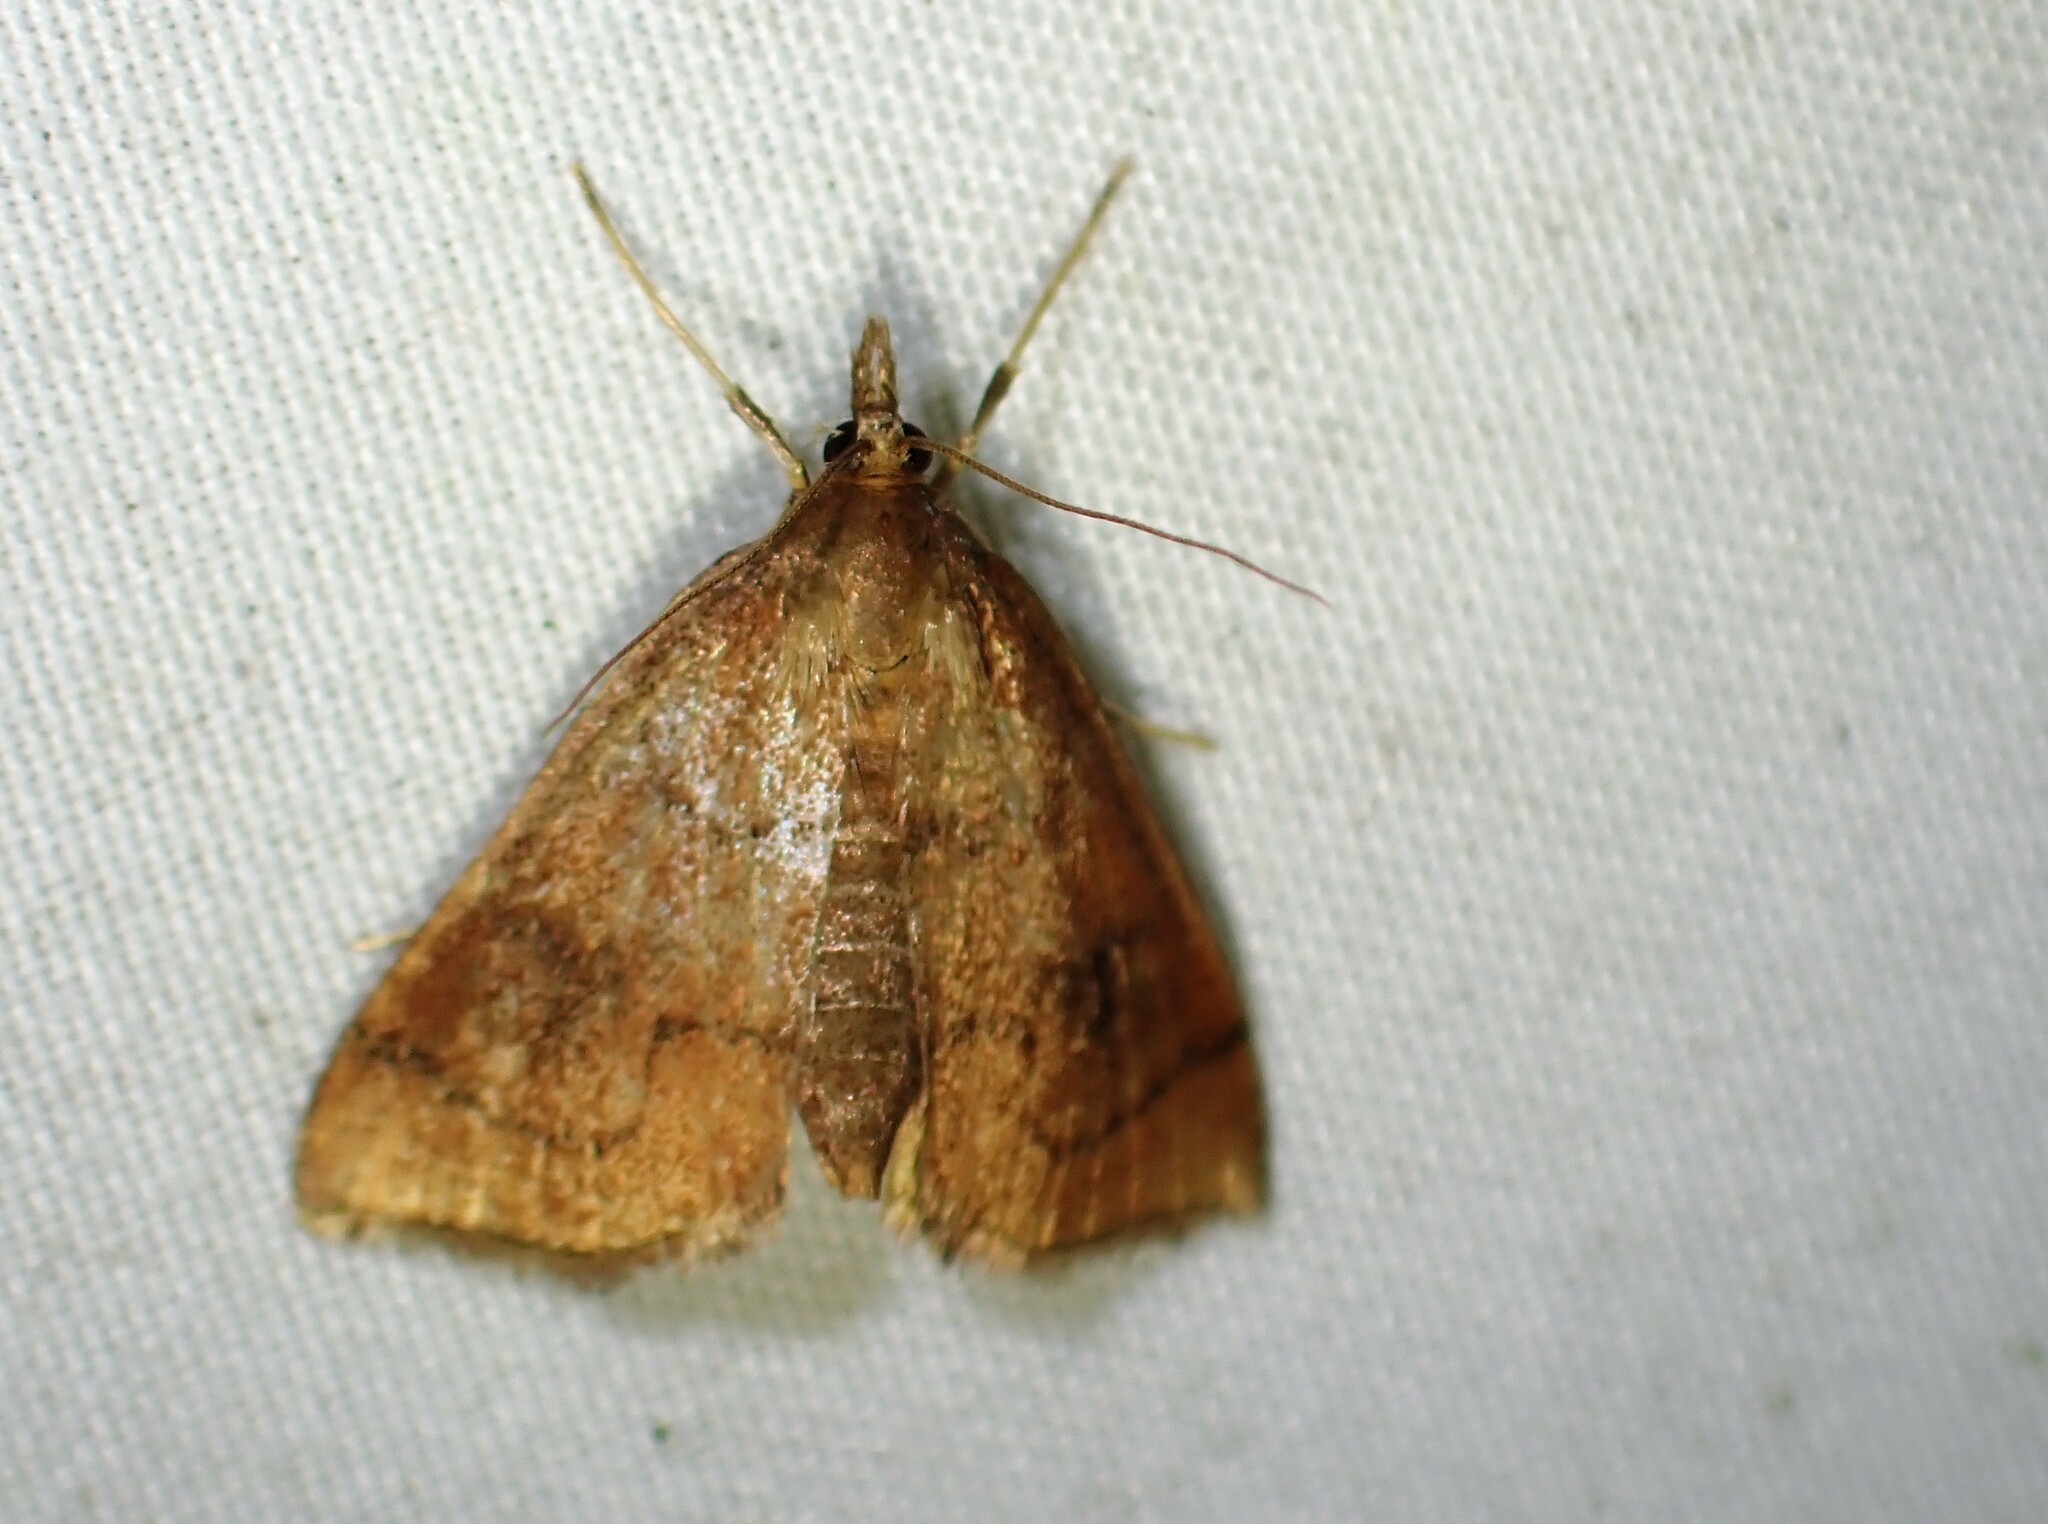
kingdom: Animalia
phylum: Arthropoda
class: Insecta
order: Lepidoptera
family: Crambidae
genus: Fumibotys
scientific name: Fumibotys fumalis
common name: Mint root borer moth
